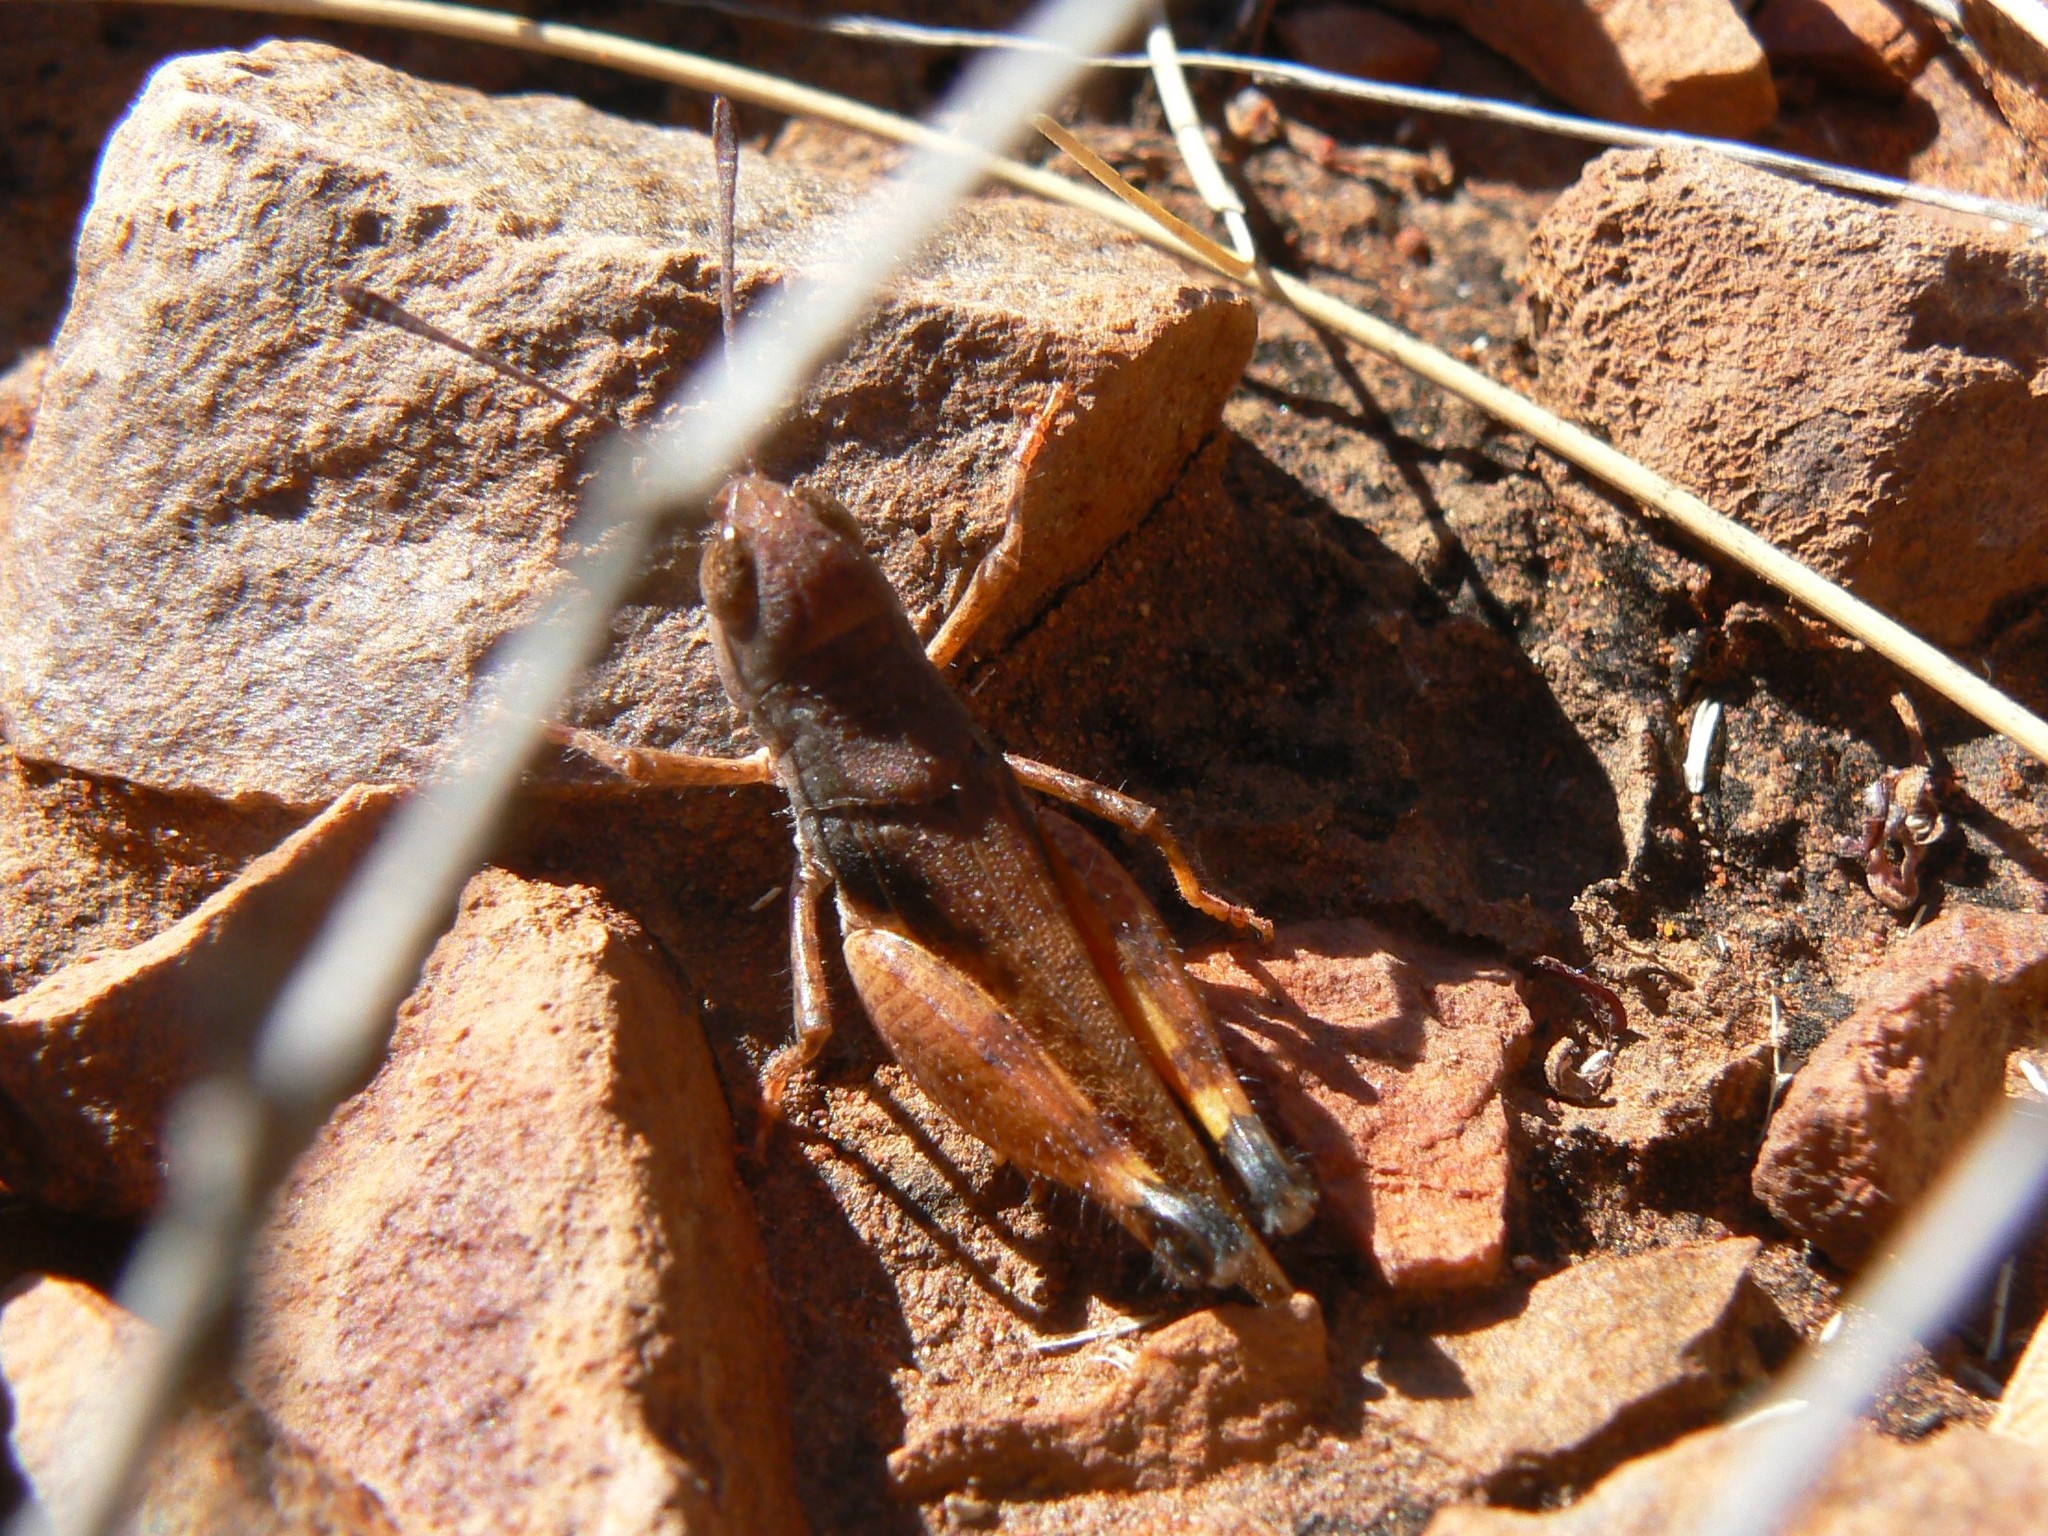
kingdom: Animalia
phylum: Arthropoda
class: Insecta
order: Orthoptera
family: Acrididae
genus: Macrazelota
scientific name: Macrazelota cervina
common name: Common pig-head
